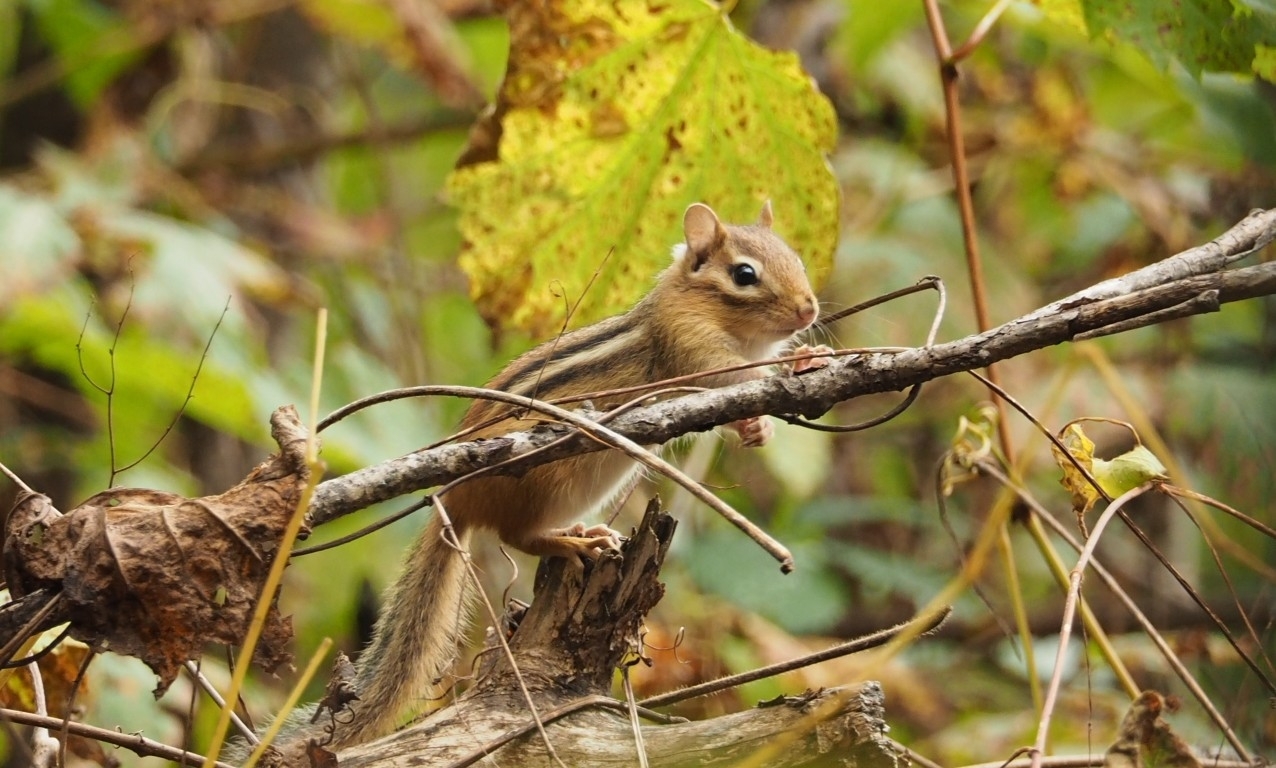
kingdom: Animalia
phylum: Chordata
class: Mammalia
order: Rodentia
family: Sciuridae
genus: Tamias
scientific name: Tamias striatus
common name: Eastern chipmunk
